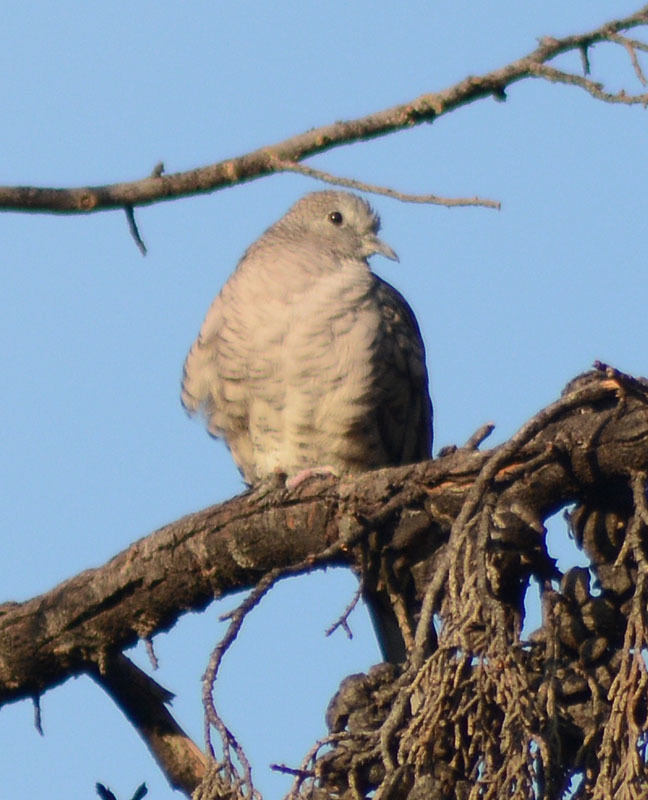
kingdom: Animalia
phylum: Chordata
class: Aves
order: Columbiformes
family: Columbidae
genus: Columbina
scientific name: Columbina inca
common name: Inca dove
